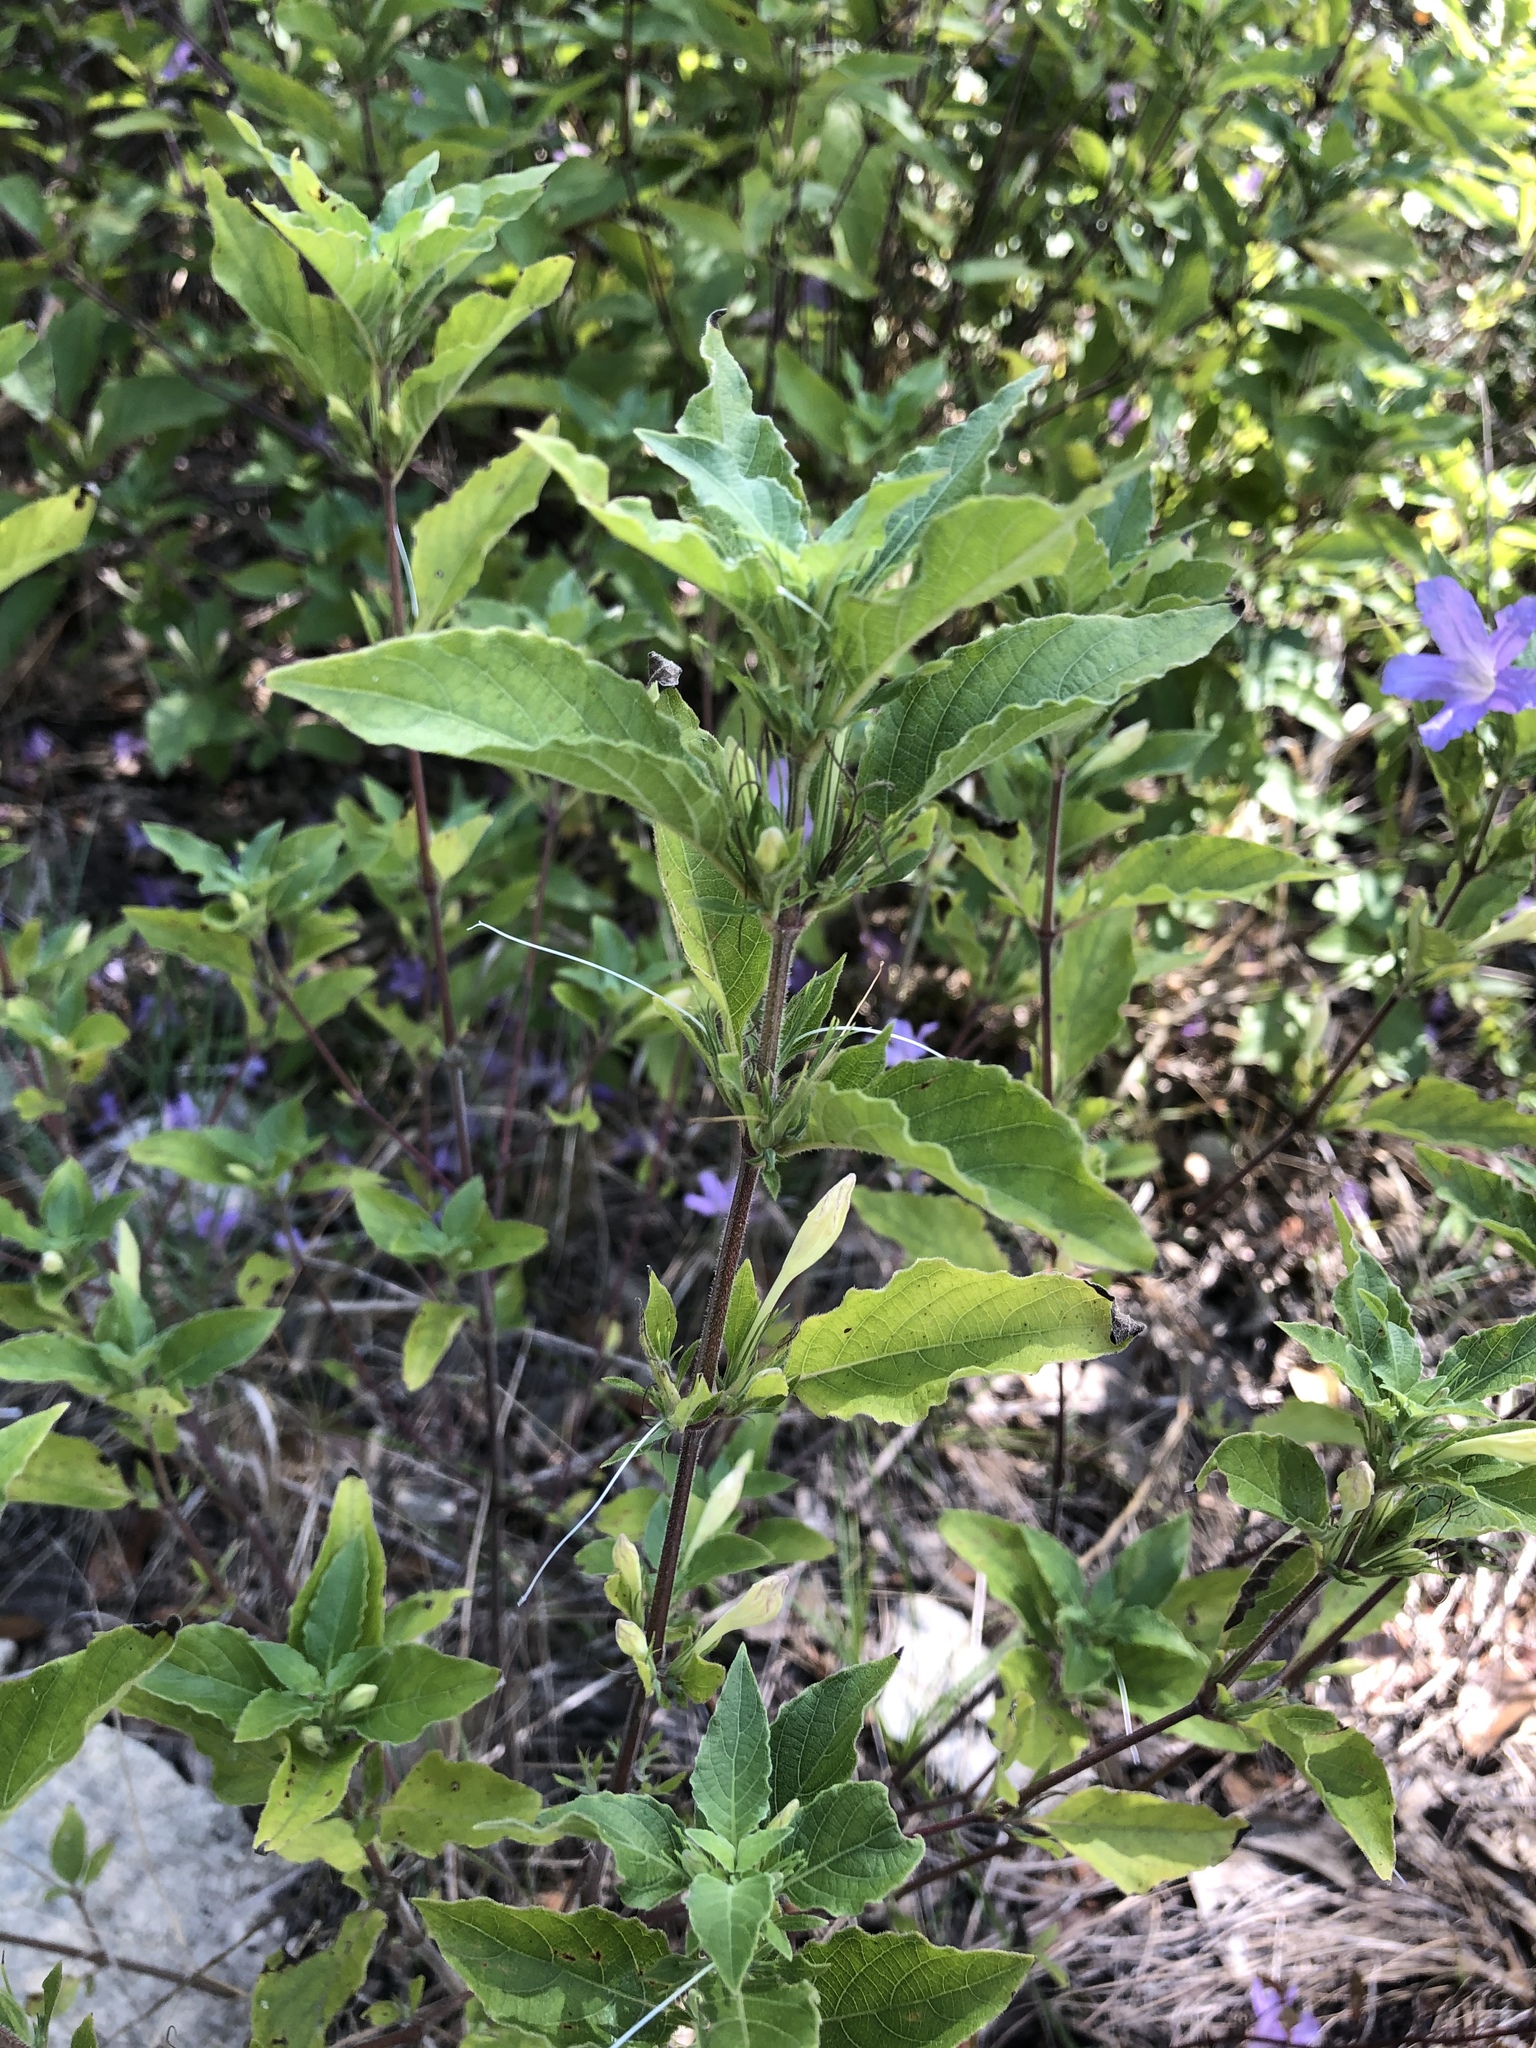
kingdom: Plantae
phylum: Tracheophyta
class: Magnoliopsida
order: Lamiales
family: Acanthaceae
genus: Ruellia
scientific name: Ruellia drummondiana
